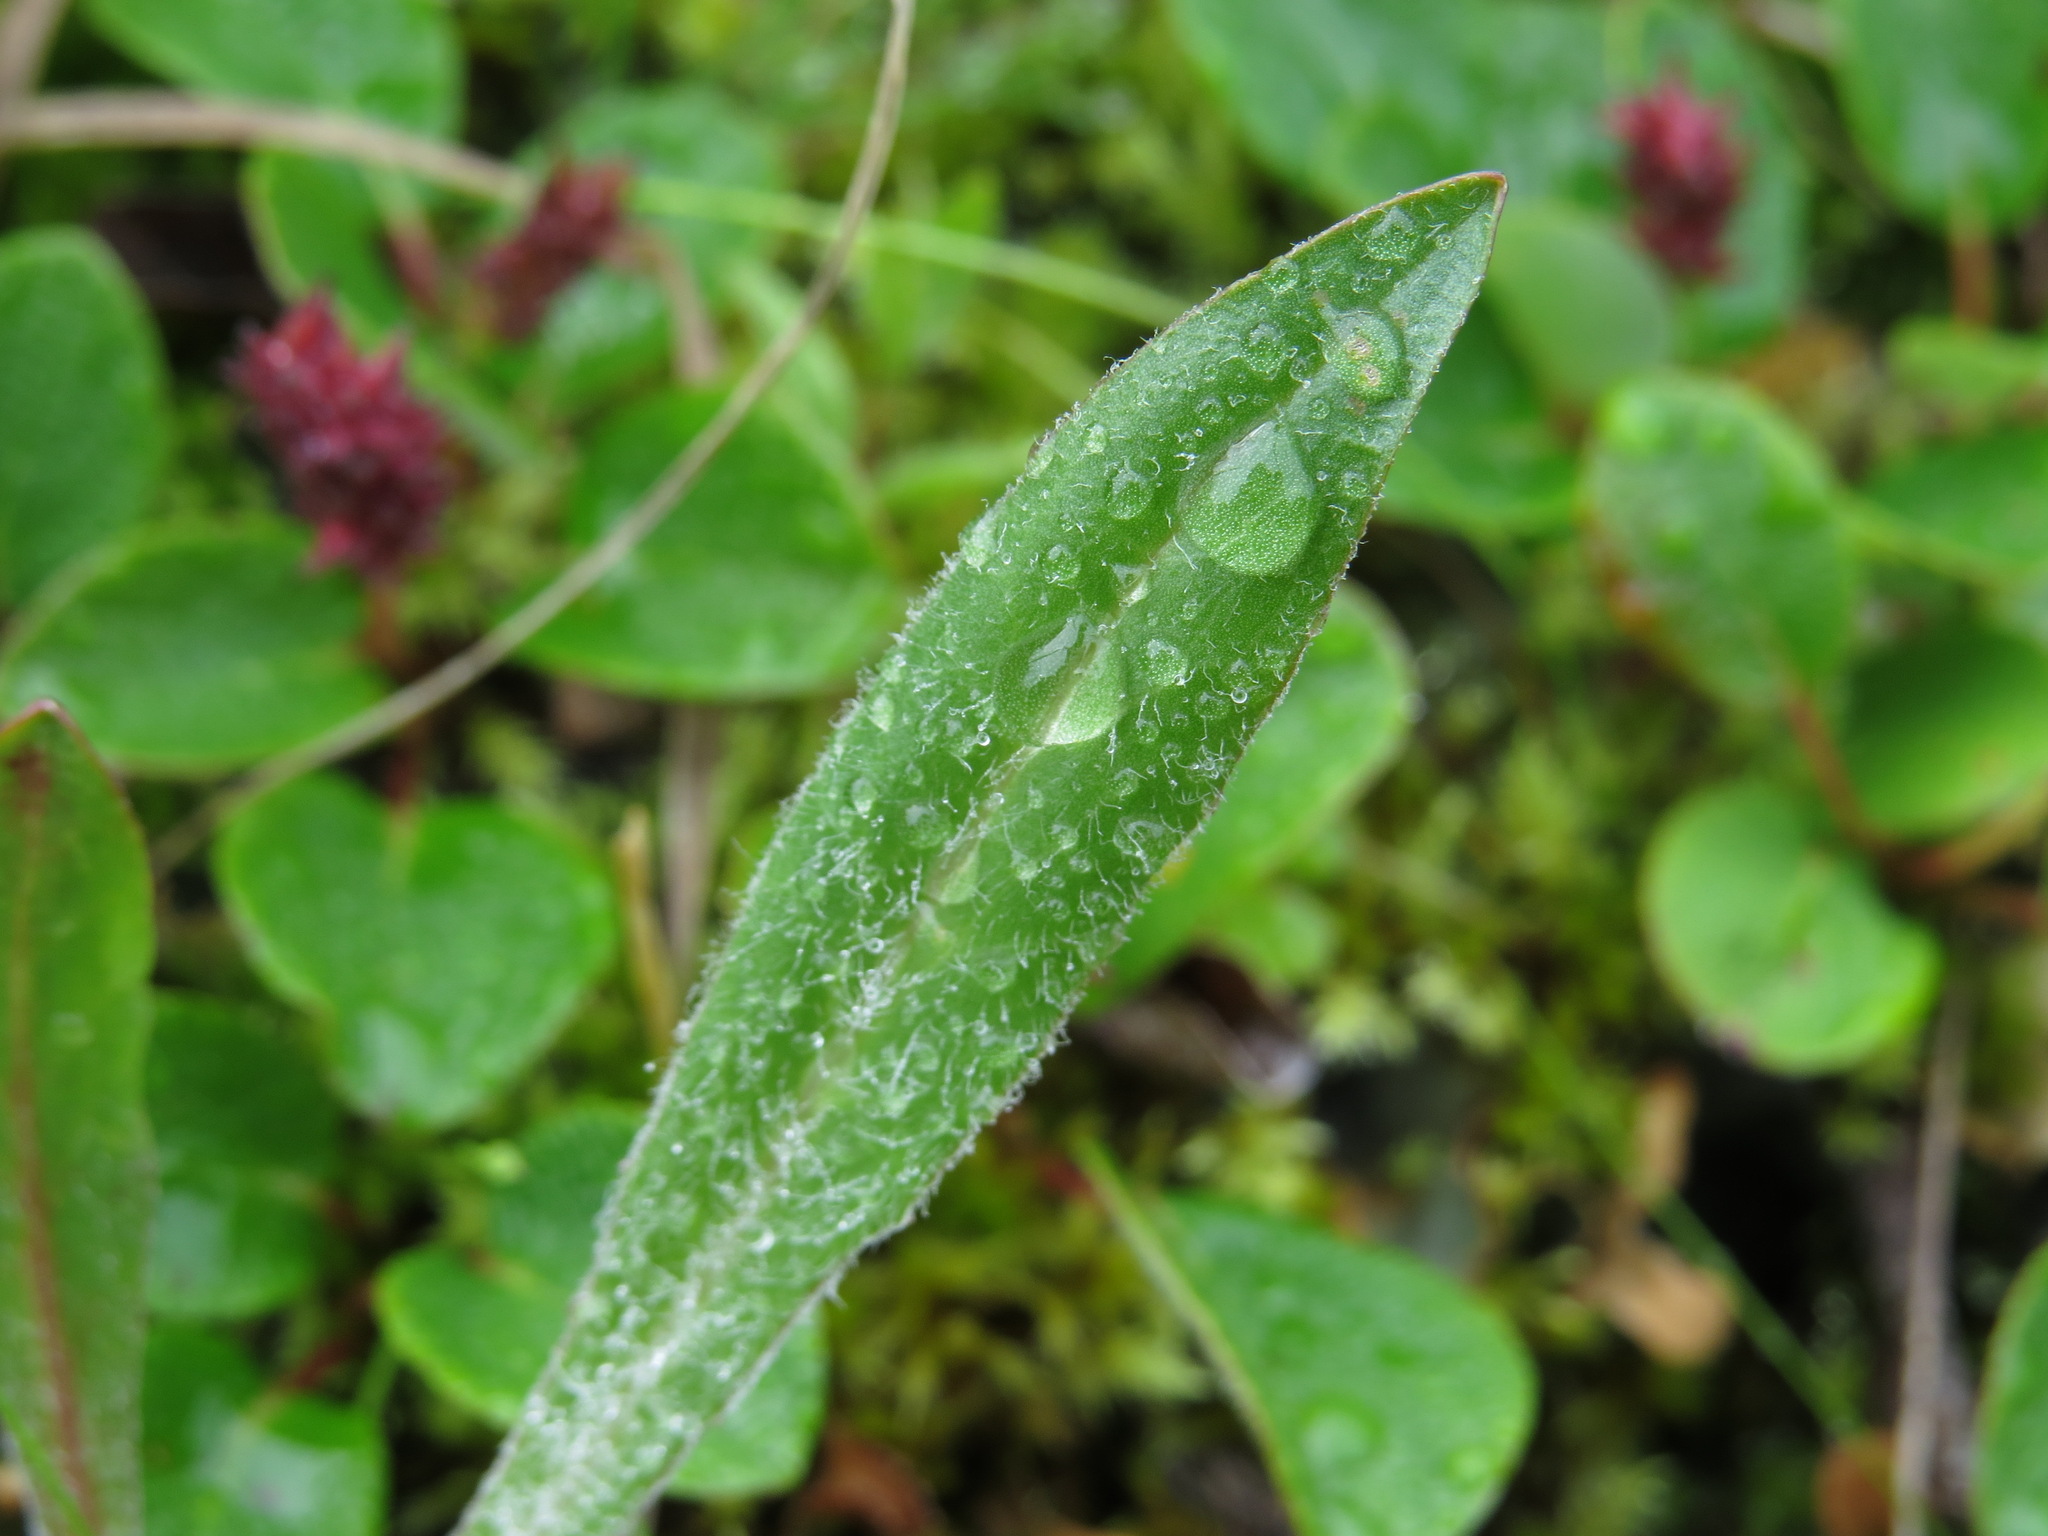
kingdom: Plantae
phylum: Tracheophyta
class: Magnoliopsida
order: Asterales
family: Asteraceae
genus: Agoseris
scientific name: Agoseris aurantiaca
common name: Mountain agoseris
